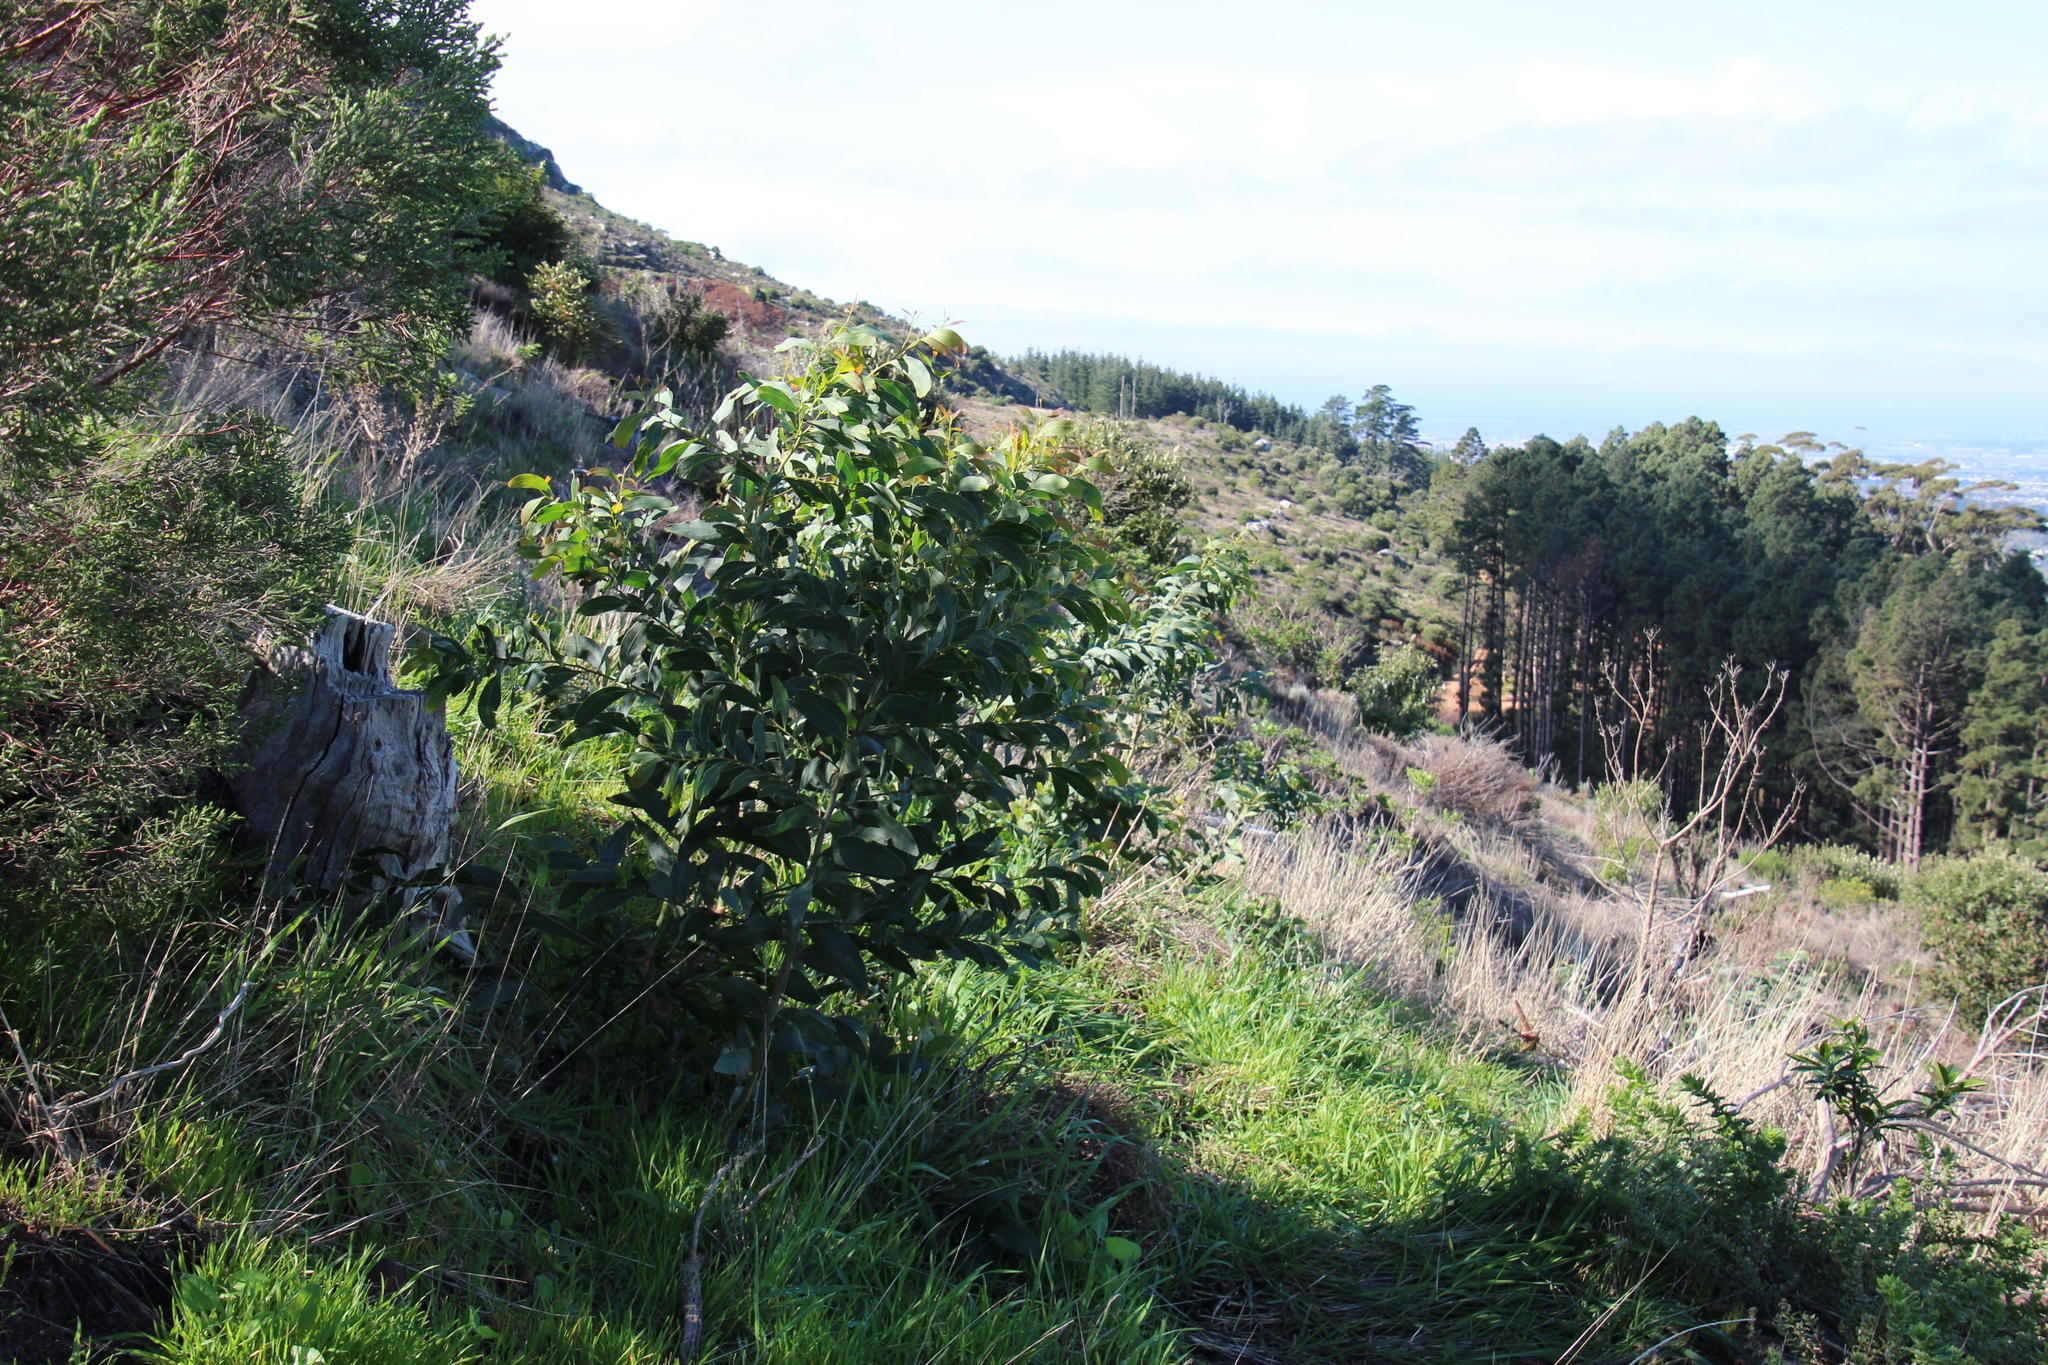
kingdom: Plantae
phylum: Tracheophyta
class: Magnoliopsida
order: Fabales
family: Fabaceae
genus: Acacia
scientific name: Acacia pycnantha
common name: Golden wattle
